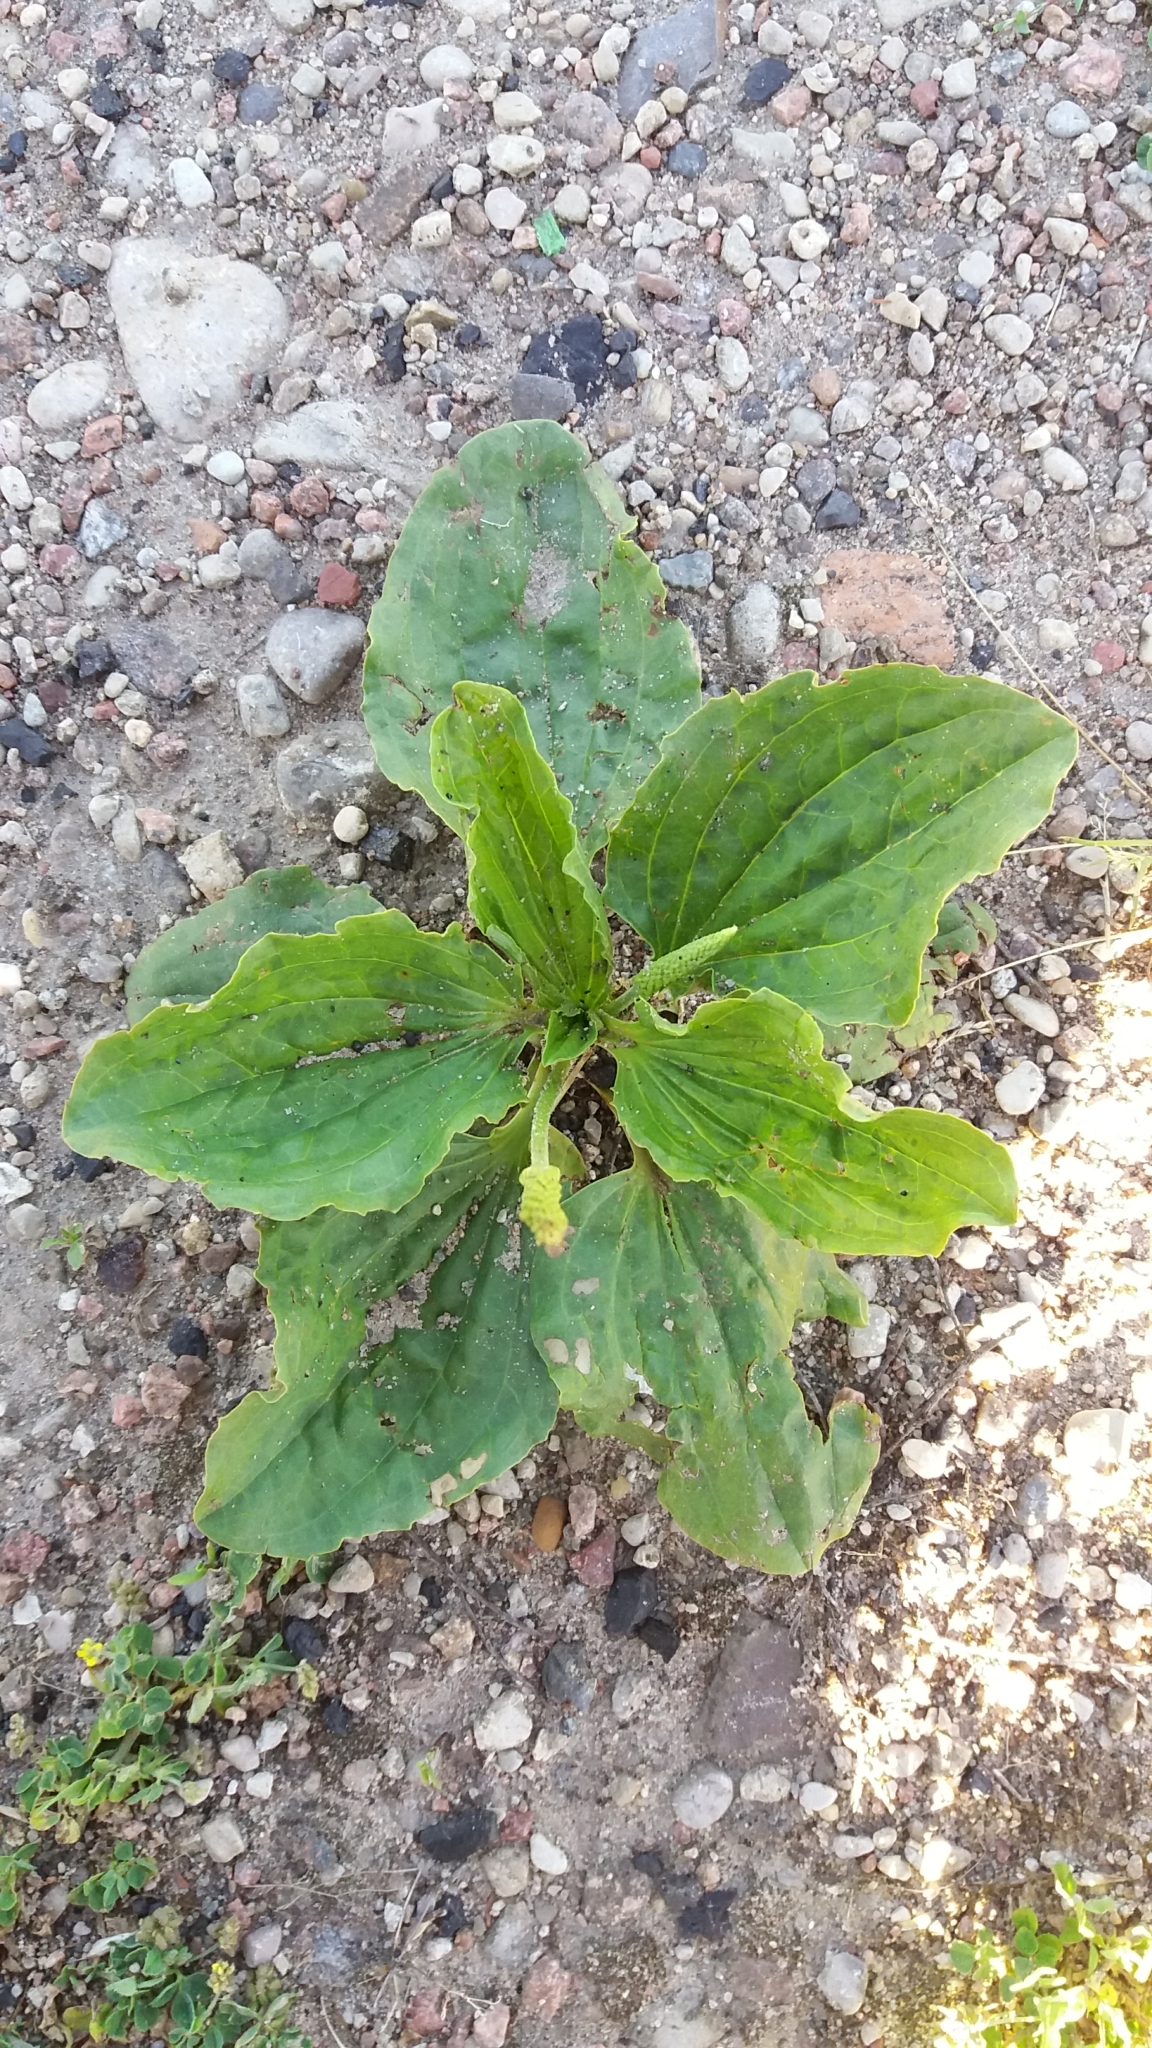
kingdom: Plantae
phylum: Tracheophyta
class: Magnoliopsida
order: Lamiales
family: Plantaginaceae
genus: Plantago
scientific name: Plantago major
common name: Common plantain
